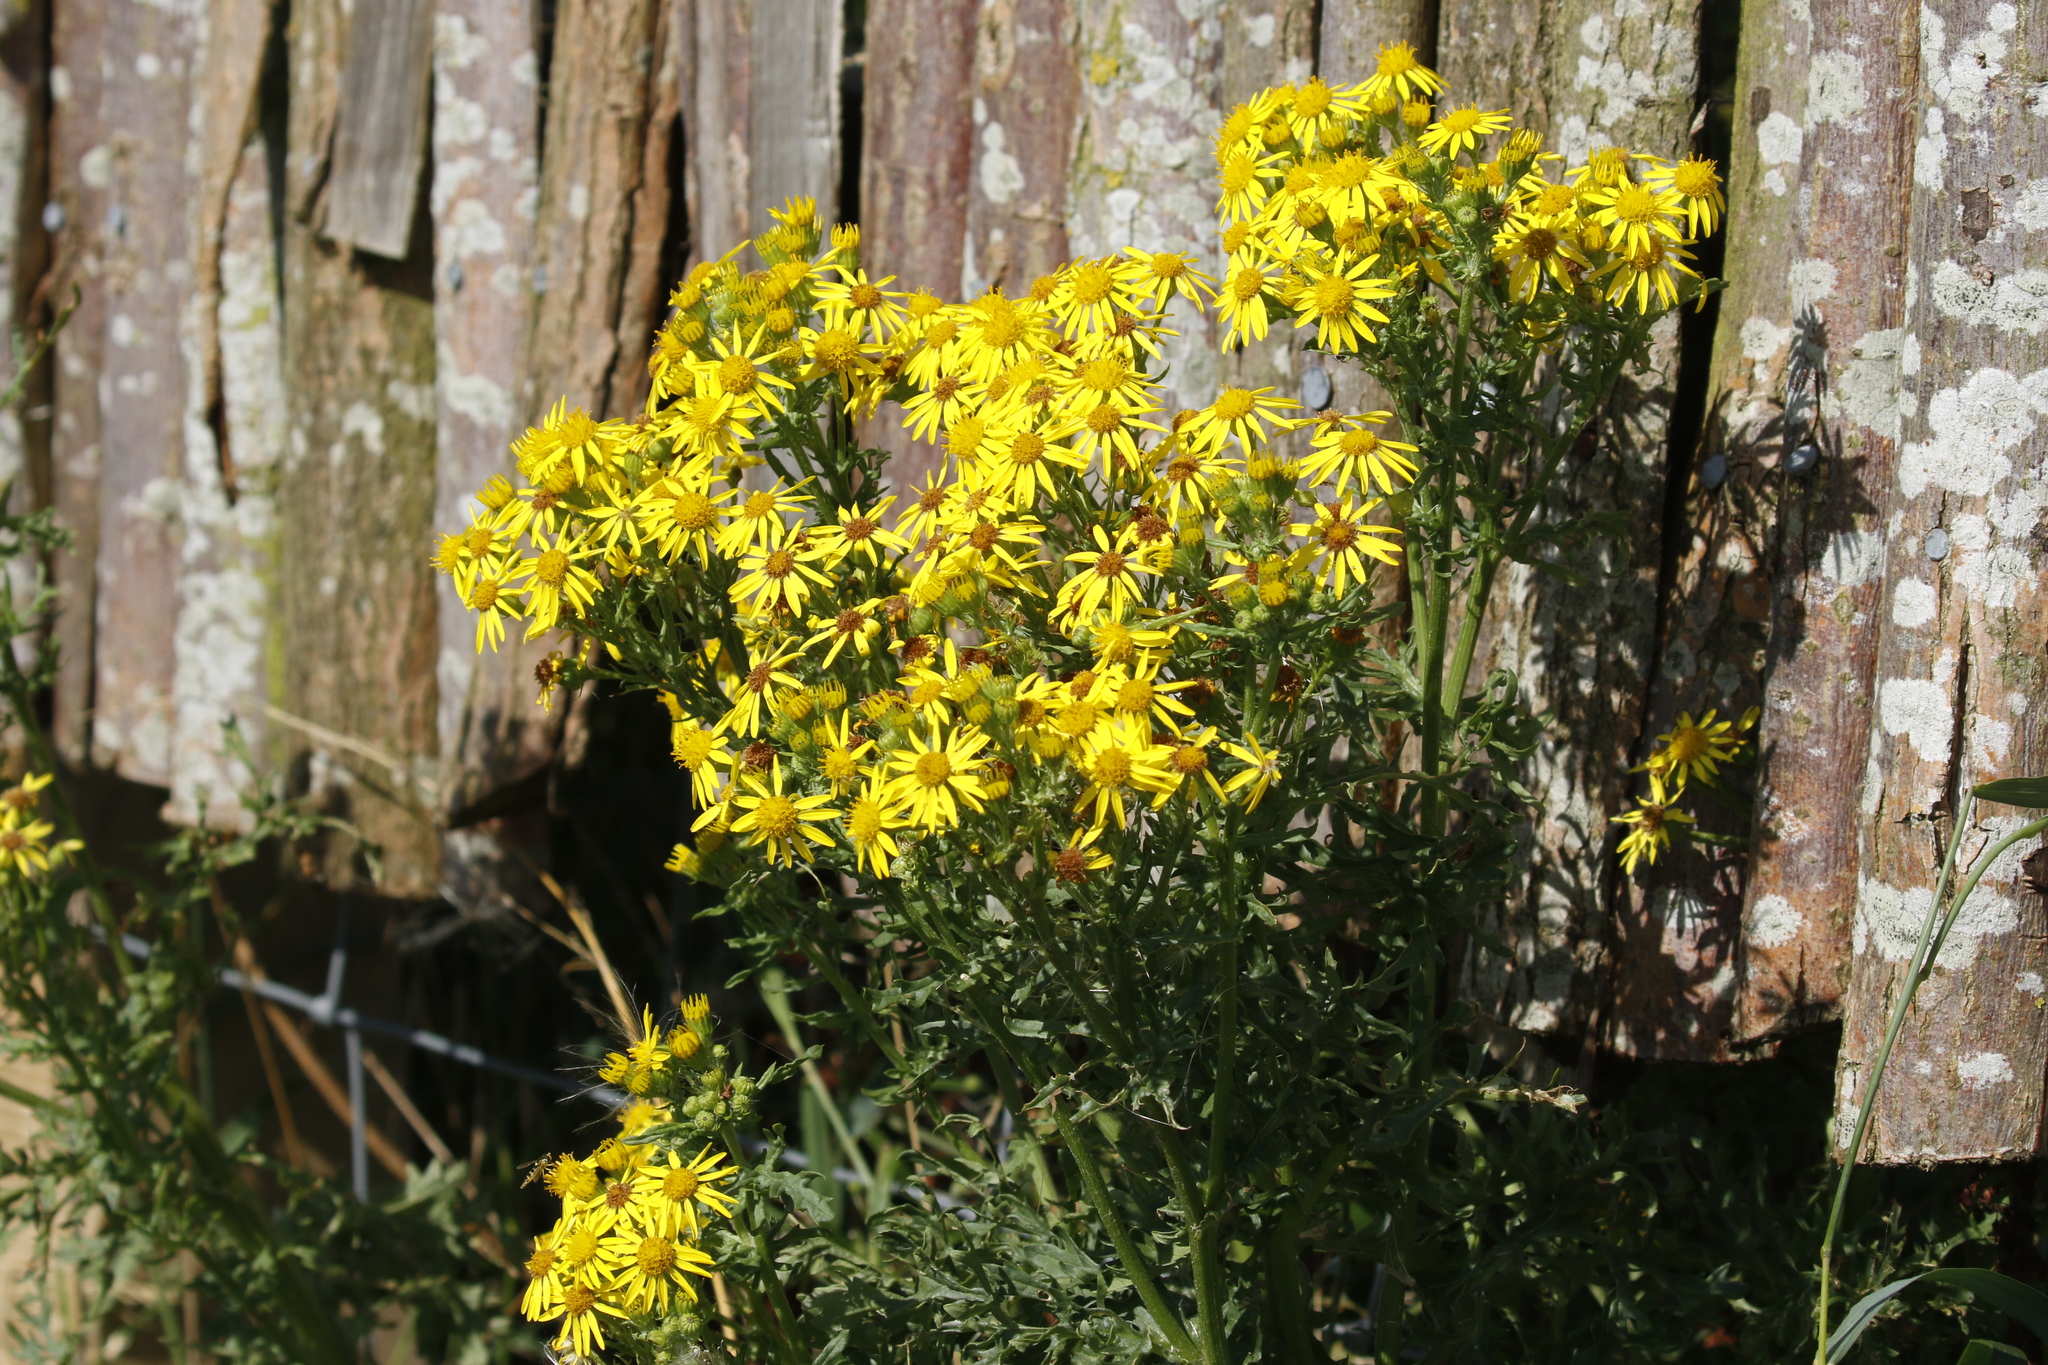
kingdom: Plantae
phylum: Tracheophyta
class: Magnoliopsida
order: Asterales
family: Asteraceae
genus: Jacobaea
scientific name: Jacobaea vulgaris
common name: Stinking willie
